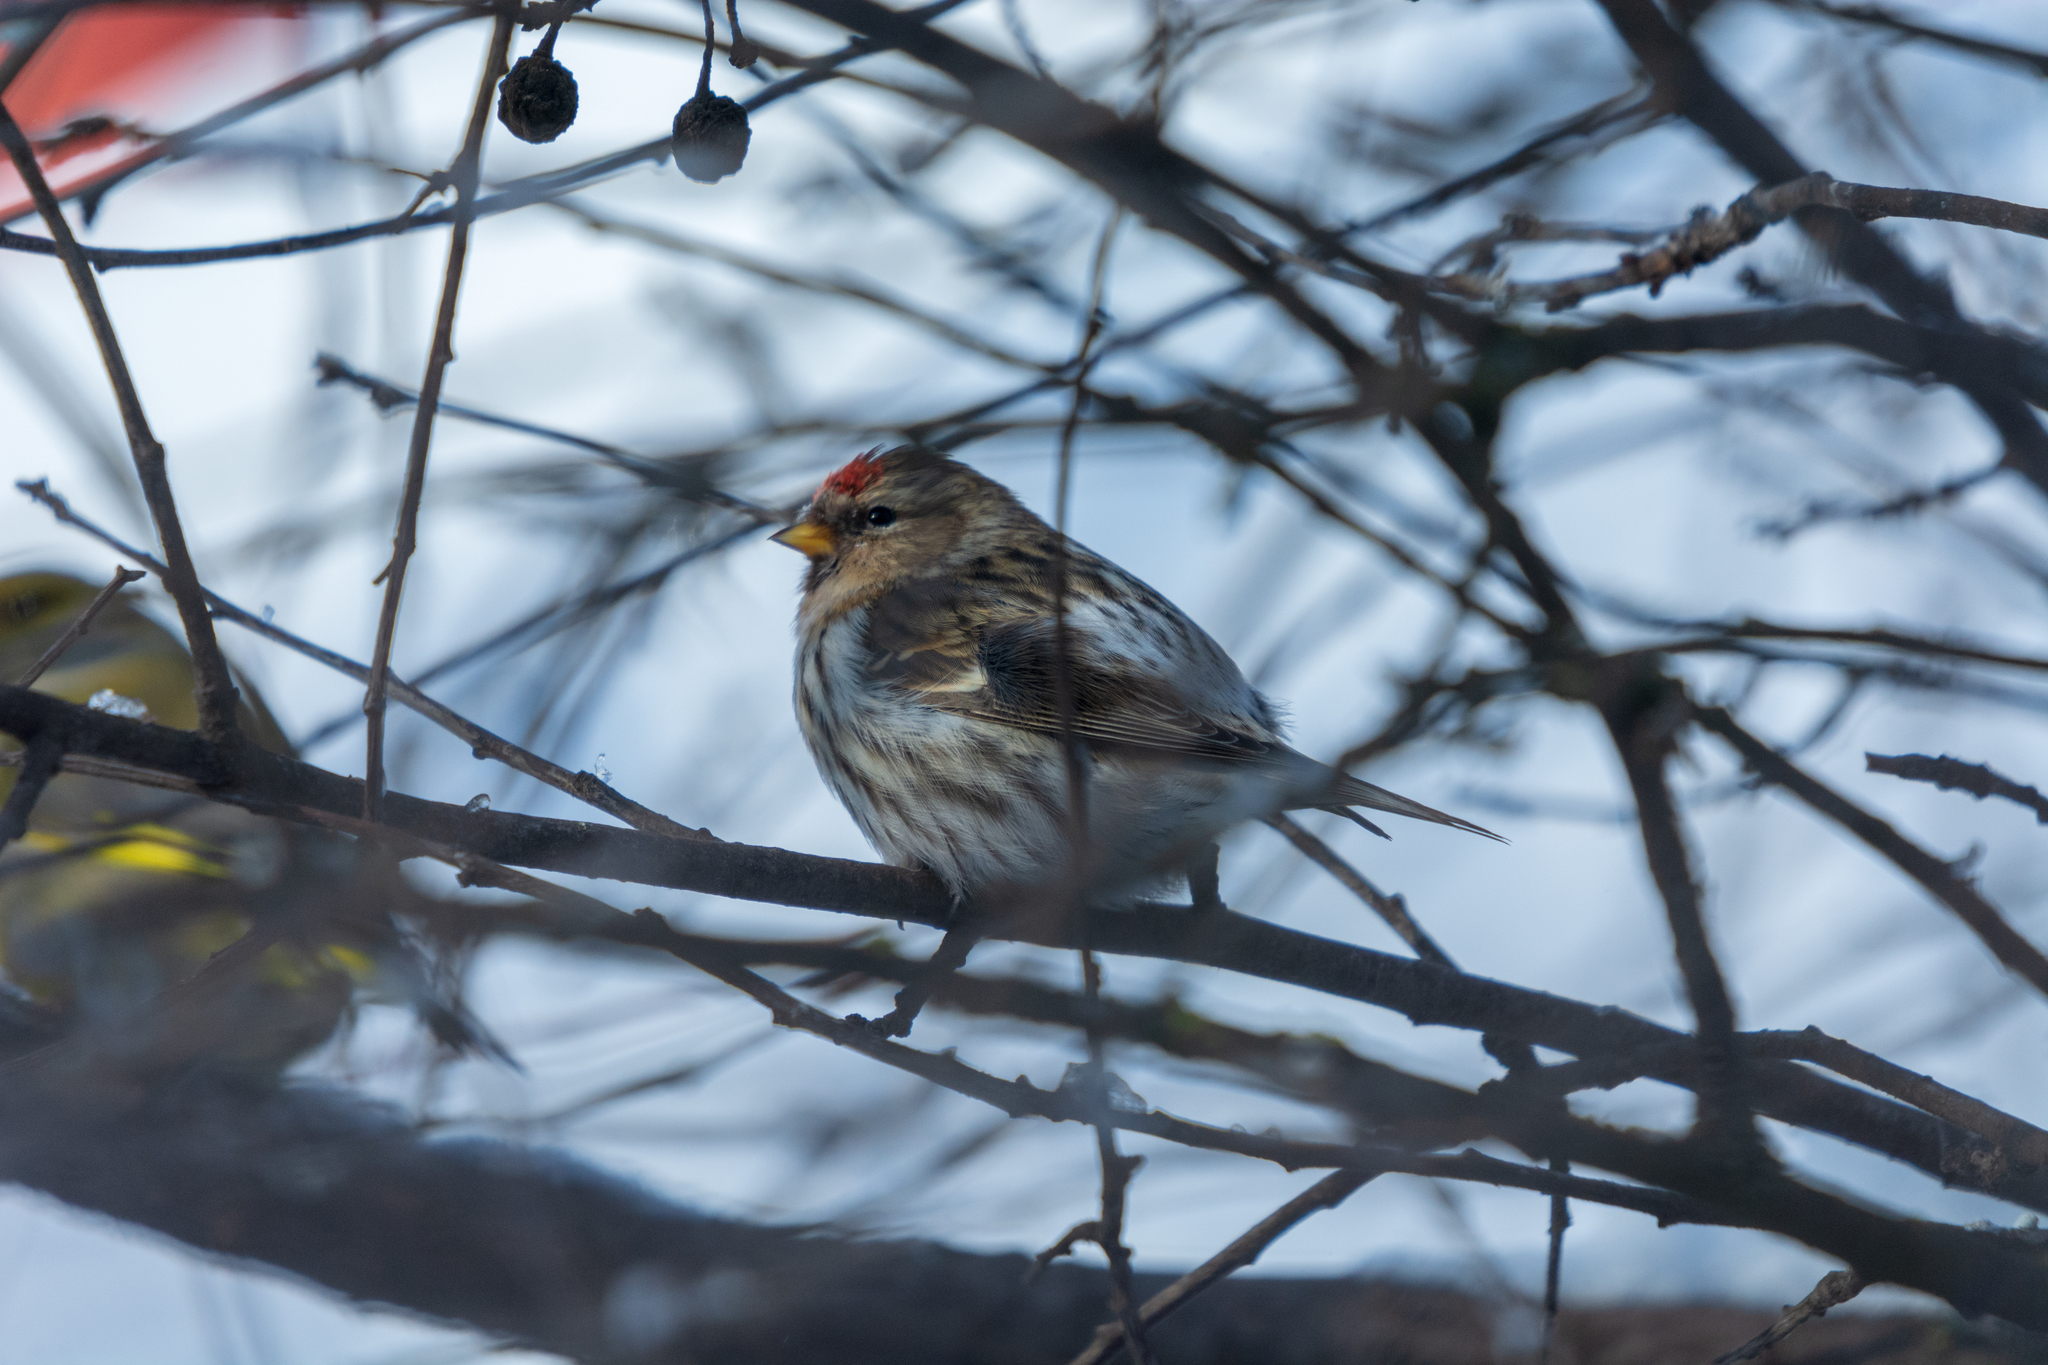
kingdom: Animalia
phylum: Chordata
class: Aves
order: Passeriformes
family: Fringillidae
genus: Acanthis
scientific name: Acanthis flammea
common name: Common redpoll
